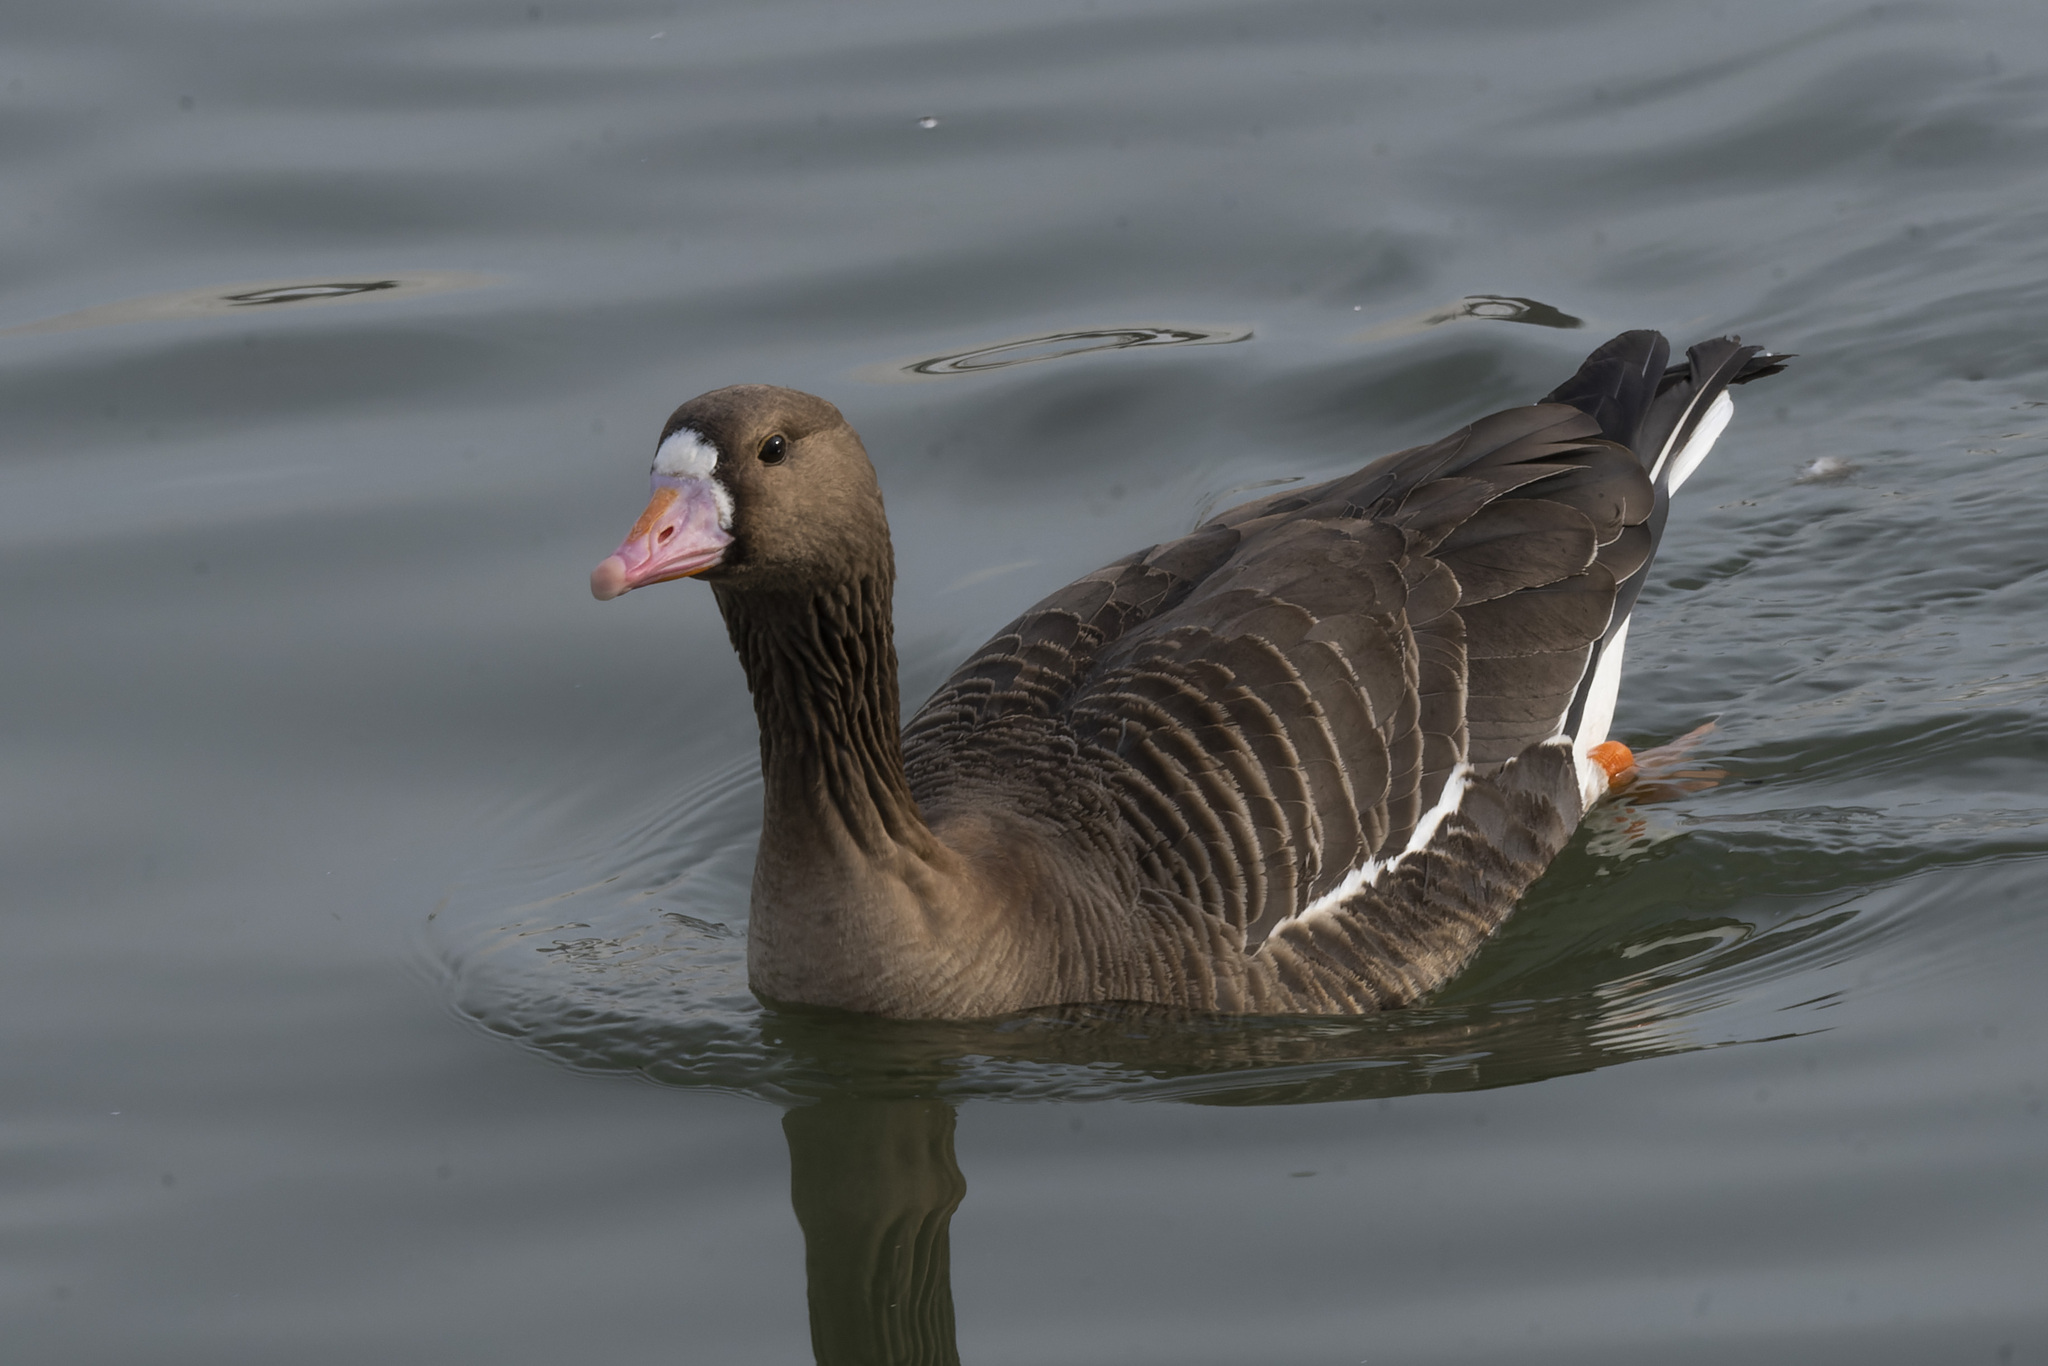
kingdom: Animalia
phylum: Chordata
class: Aves
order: Anseriformes
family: Anatidae
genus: Anser
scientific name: Anser albifrons
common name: Greater white-fronted goose
